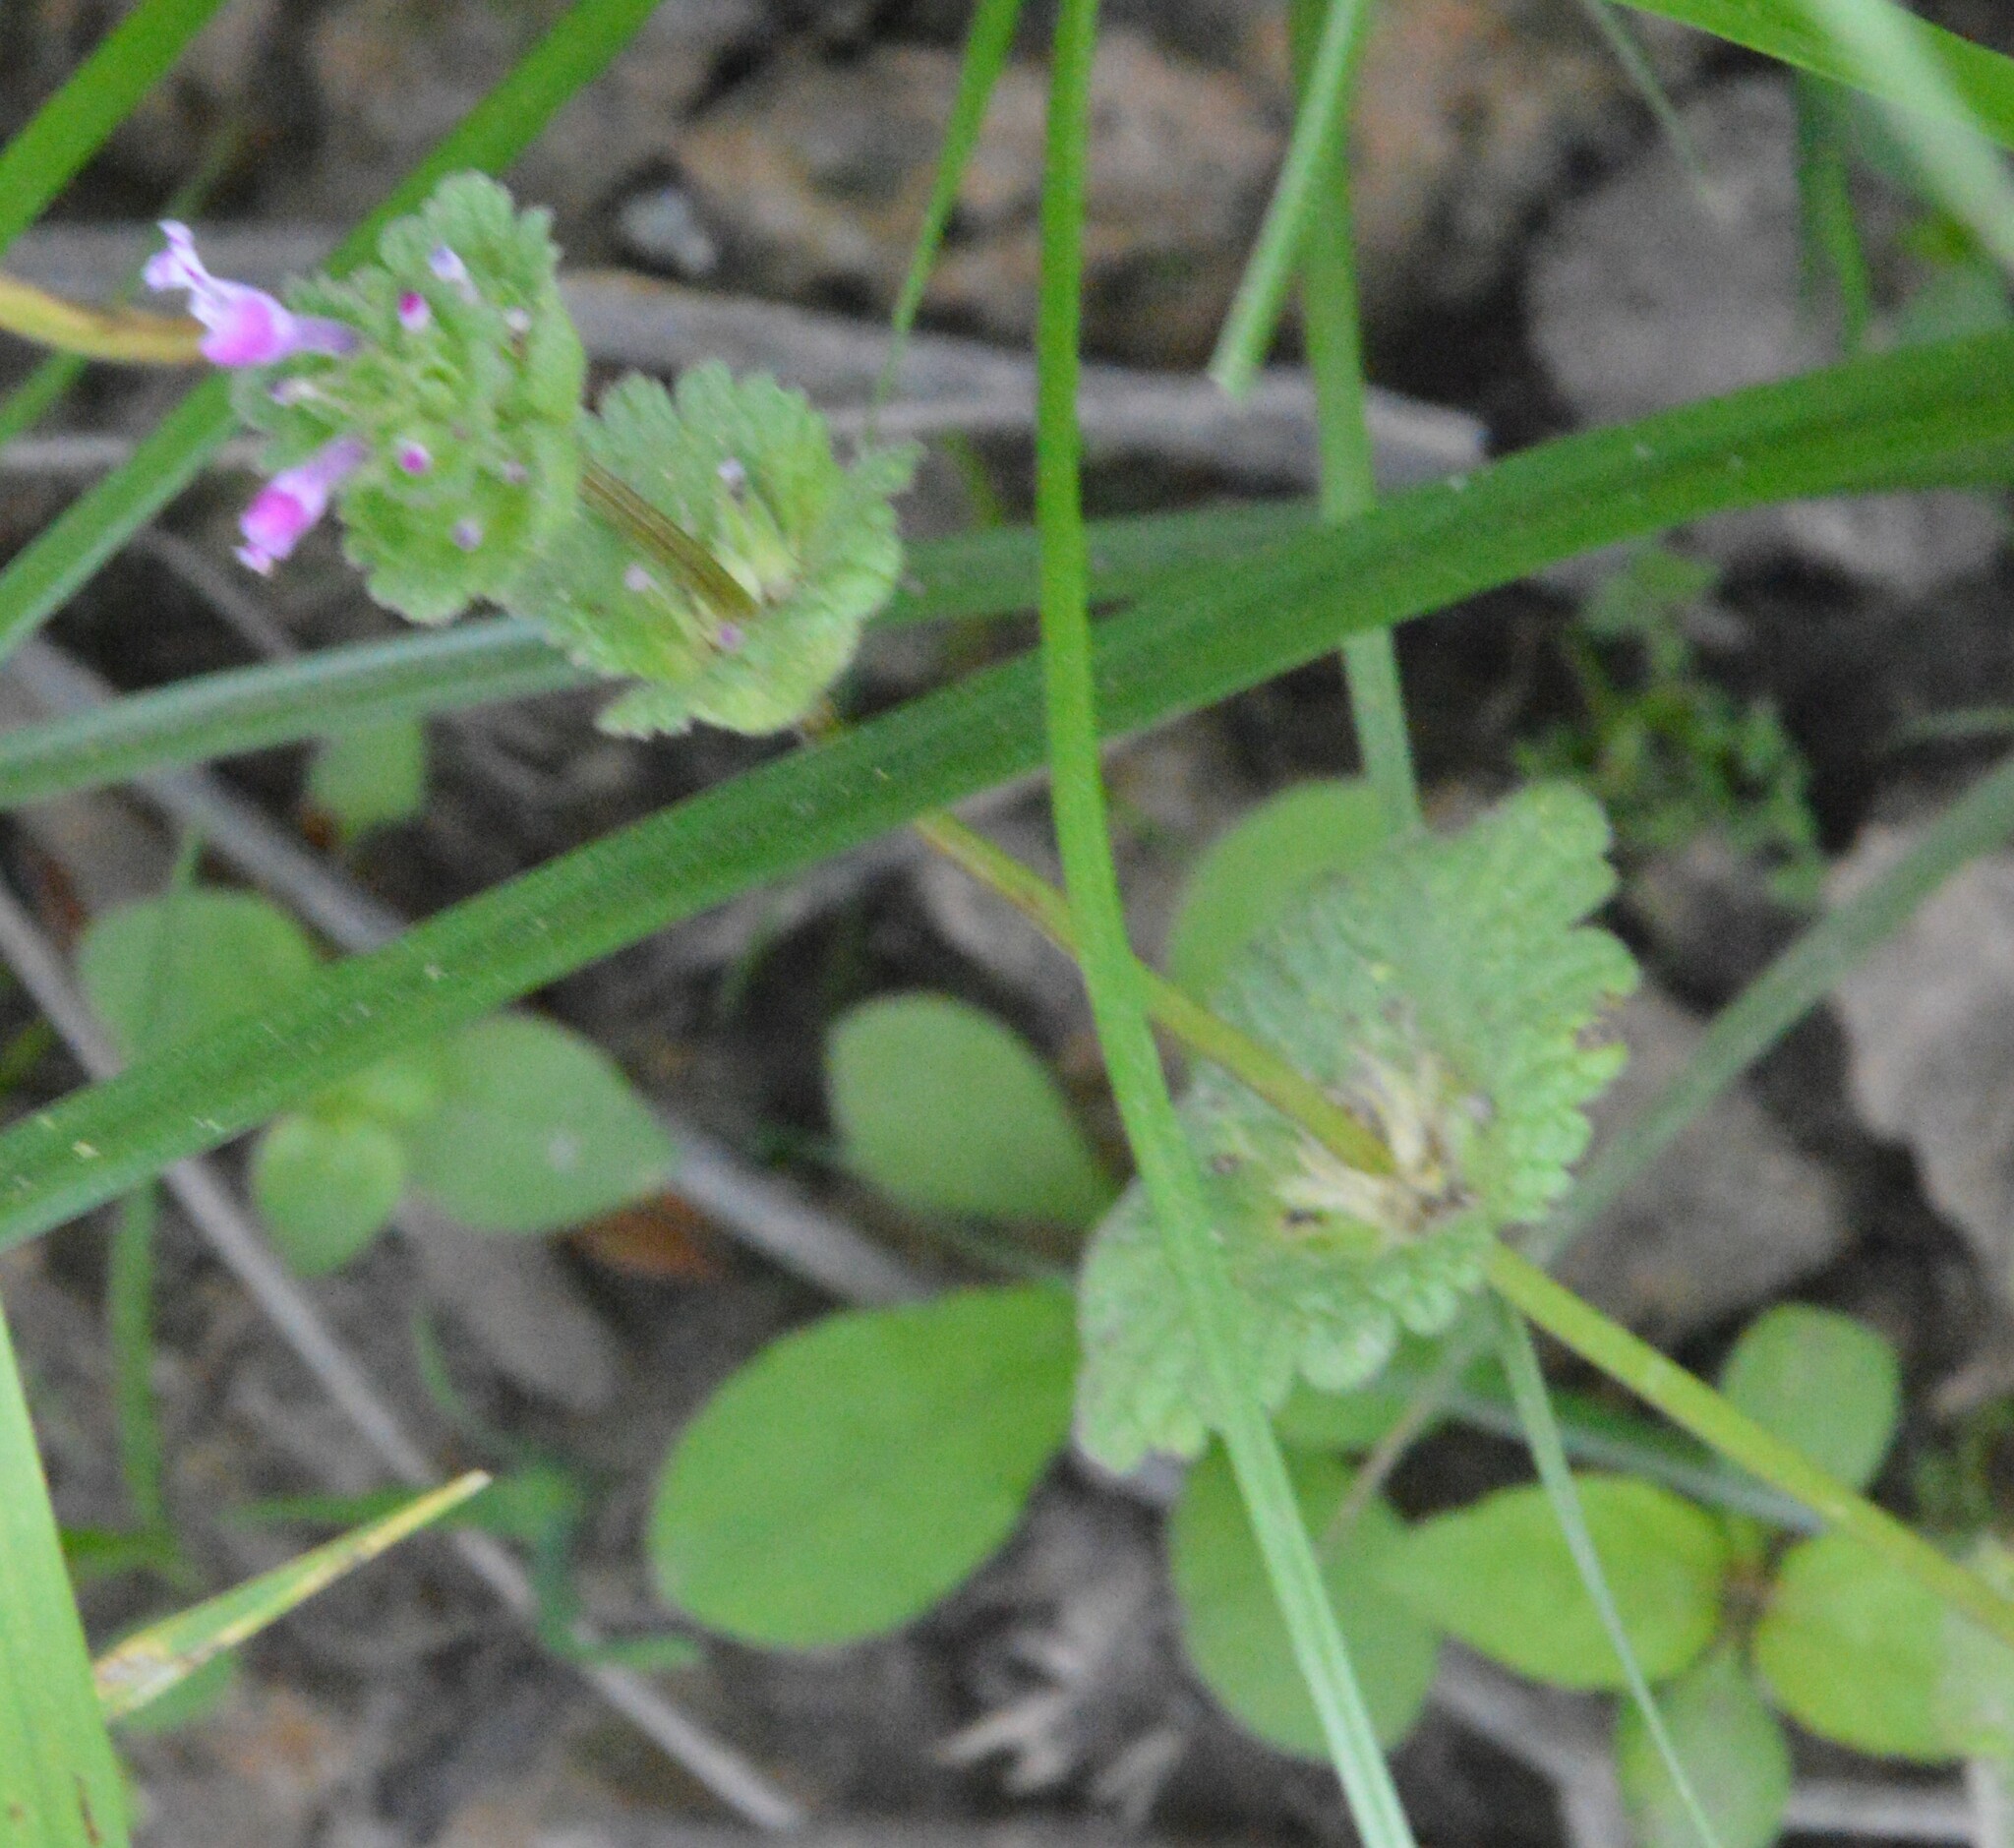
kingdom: Plantae
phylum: Tracheophyta
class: Magnoliopsida
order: Lamiales
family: Lamiaceae
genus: Lamium
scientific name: Lamium amplexicaule
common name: Henbit dead-nettle
